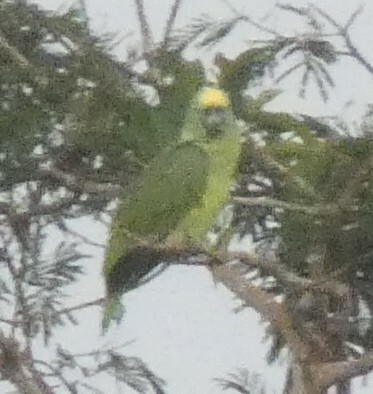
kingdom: Animalia
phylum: Chordata
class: Aves
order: Psittaciformes
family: Psittacidae
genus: Amazona
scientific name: Amazona ochrocephala
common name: Yellow-crowned amazon
